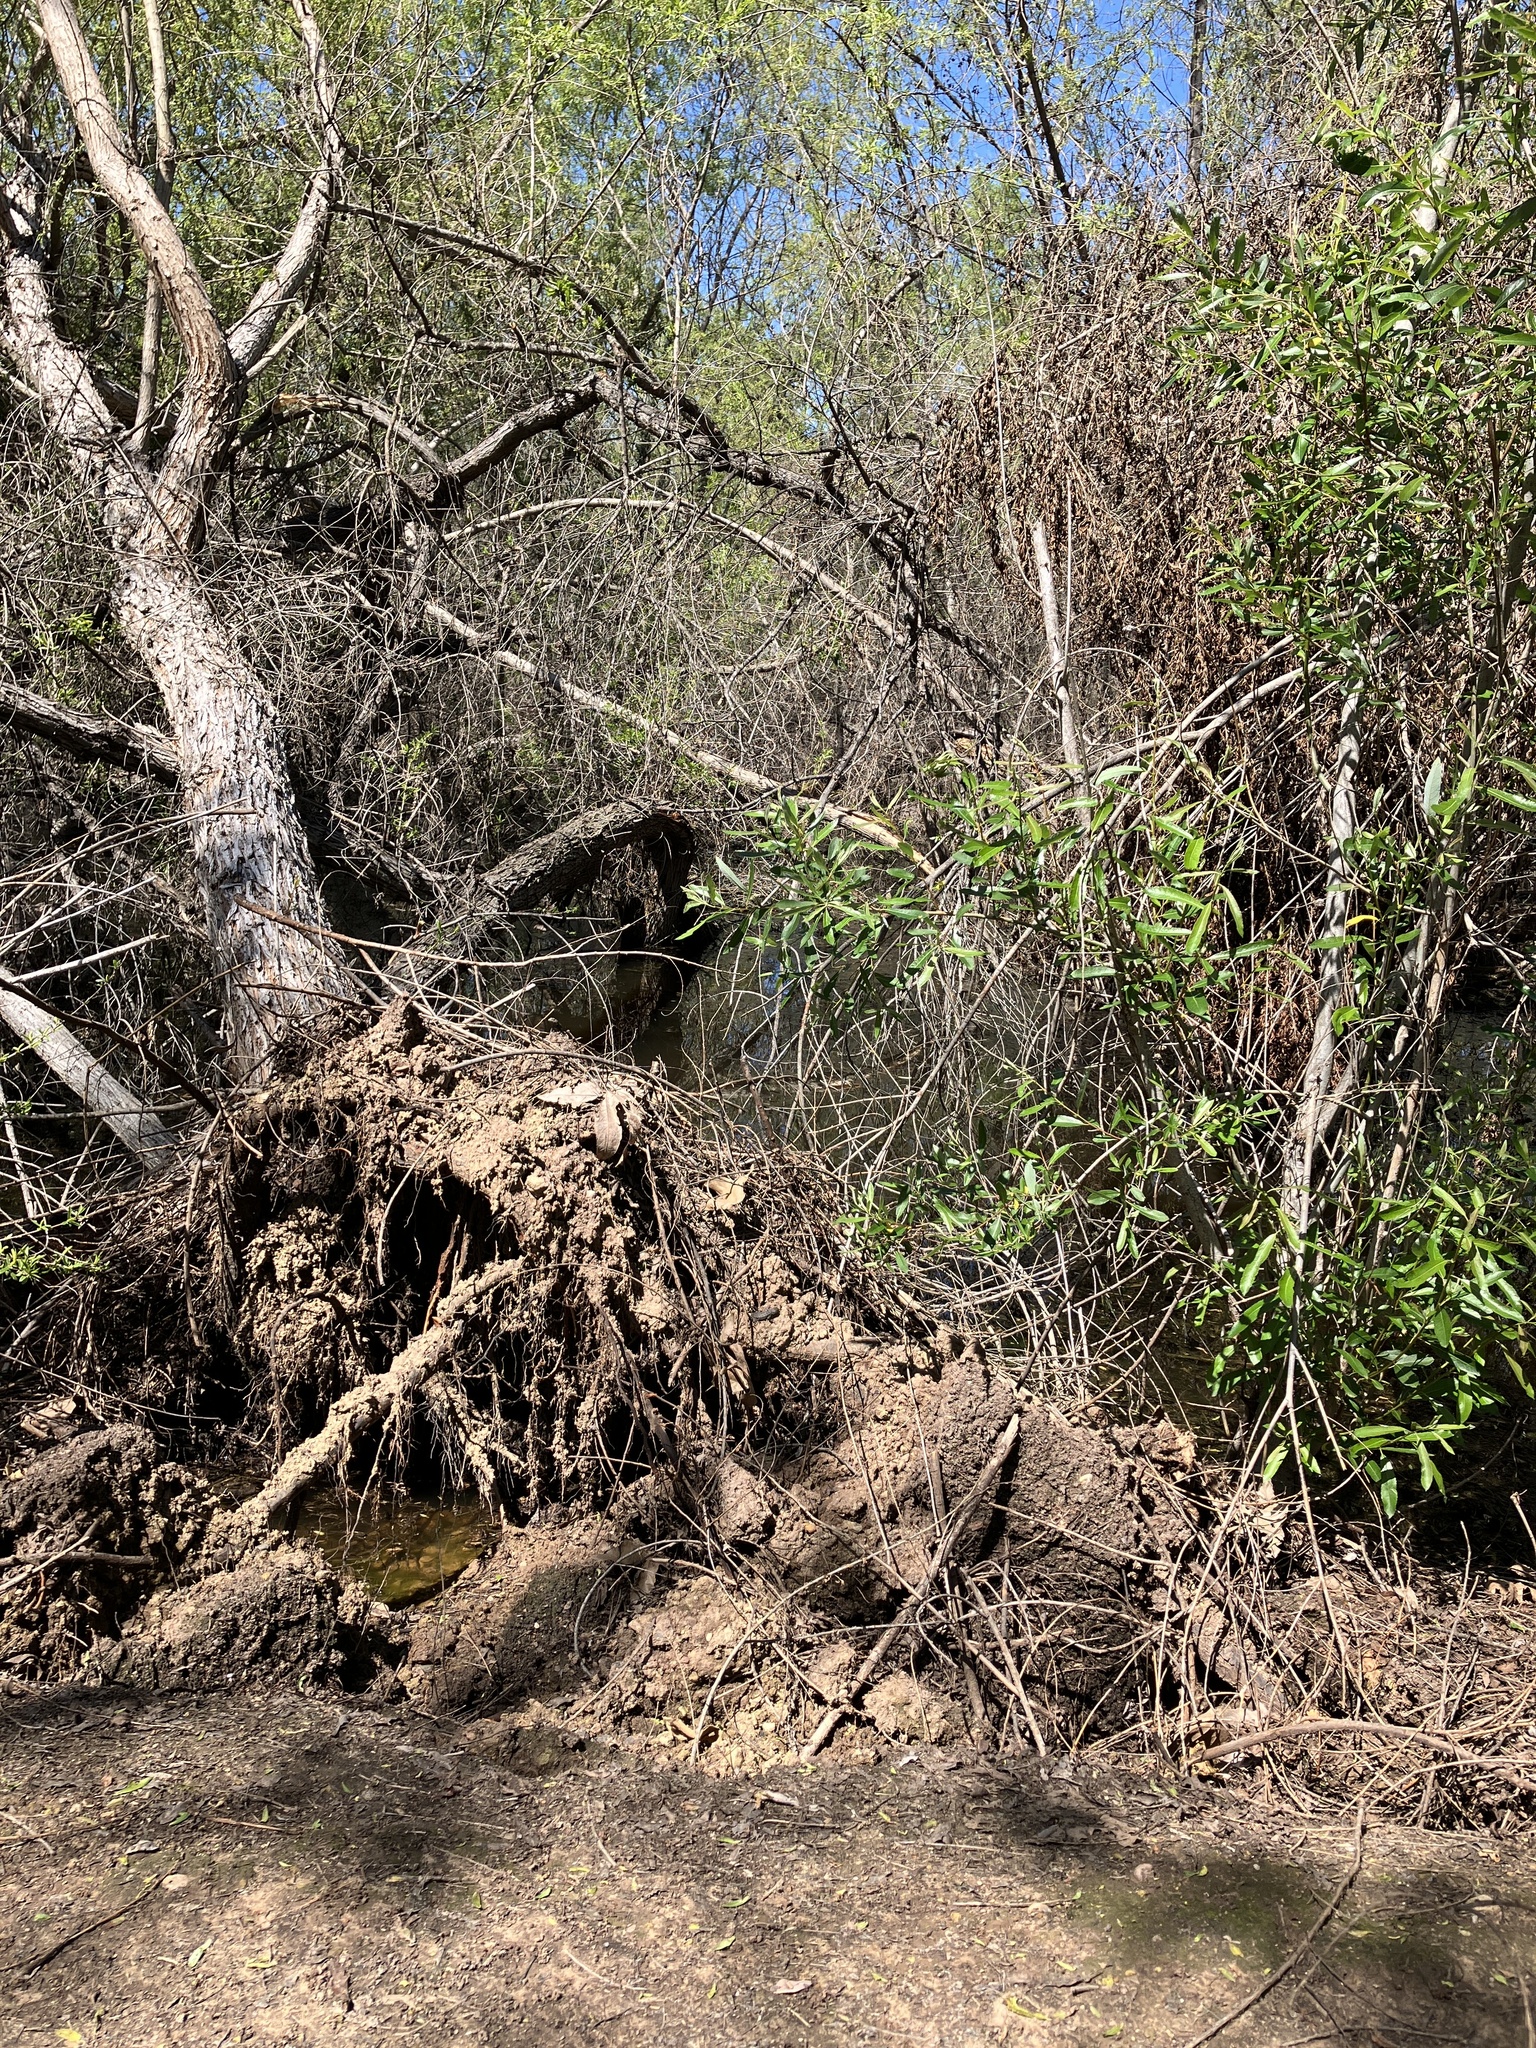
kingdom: Animalia
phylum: Chordata
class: Squamata
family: Phrynosomatidae
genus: Sceloporus
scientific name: Sceloporus occidentalis
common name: Western fence lizard
